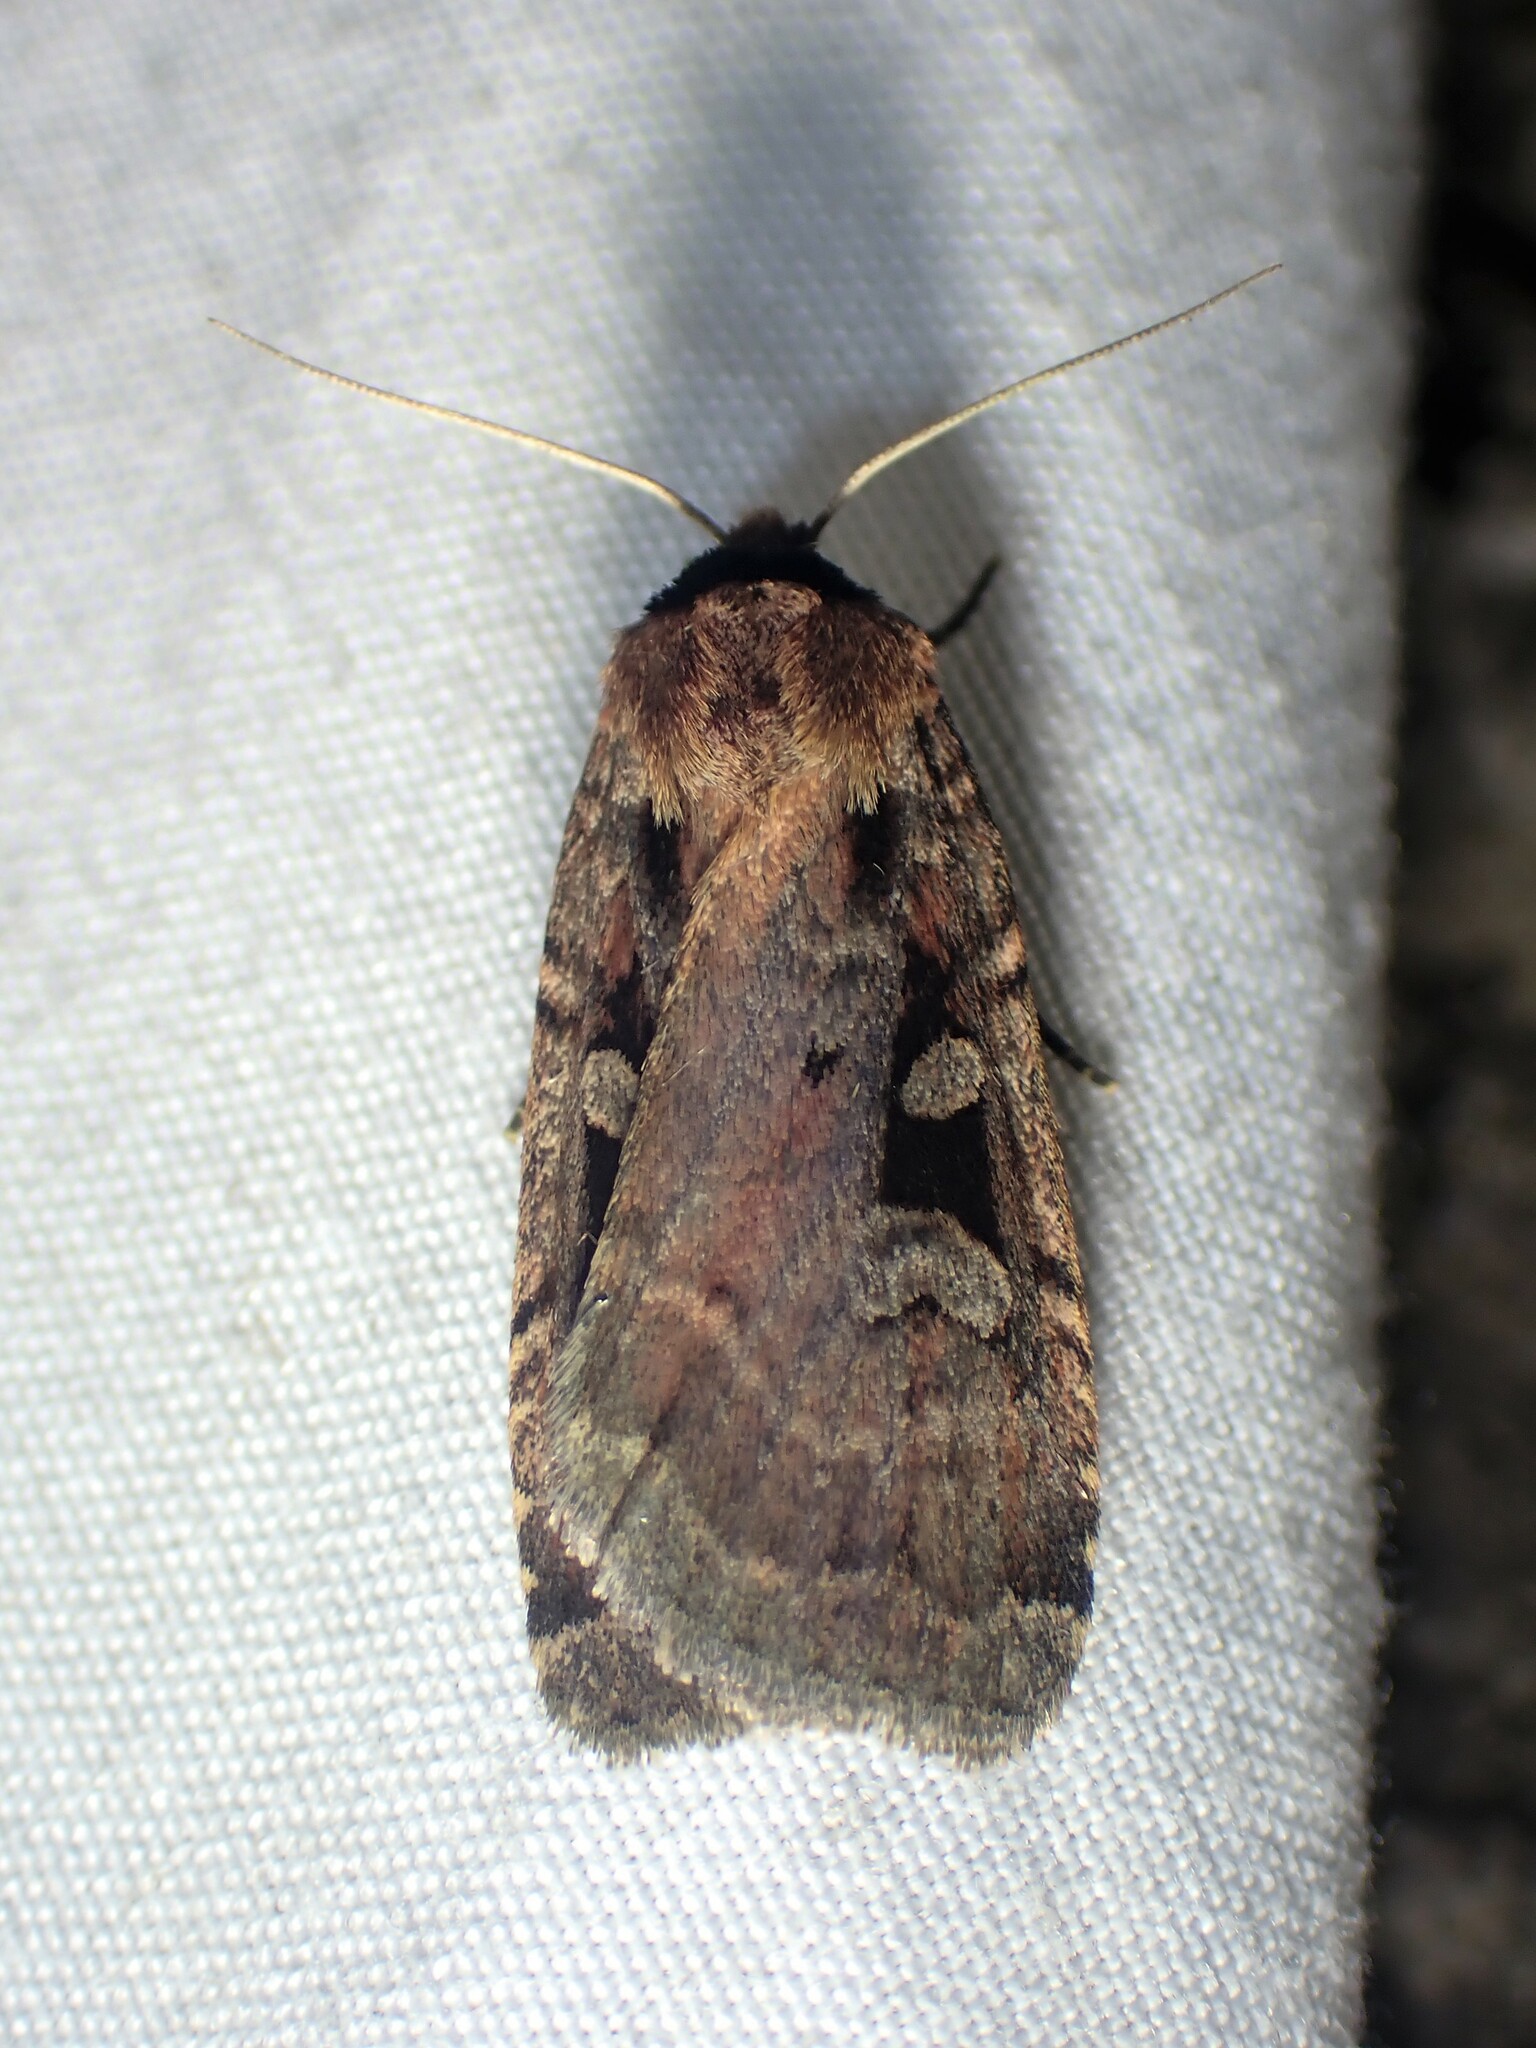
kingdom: Animalia
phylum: Arthropoda
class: Insecta
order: Lepidoptera
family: Noctuidae
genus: Eueretagrotis
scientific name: Eueretagrotis perattentus
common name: Two-spot dart moth
